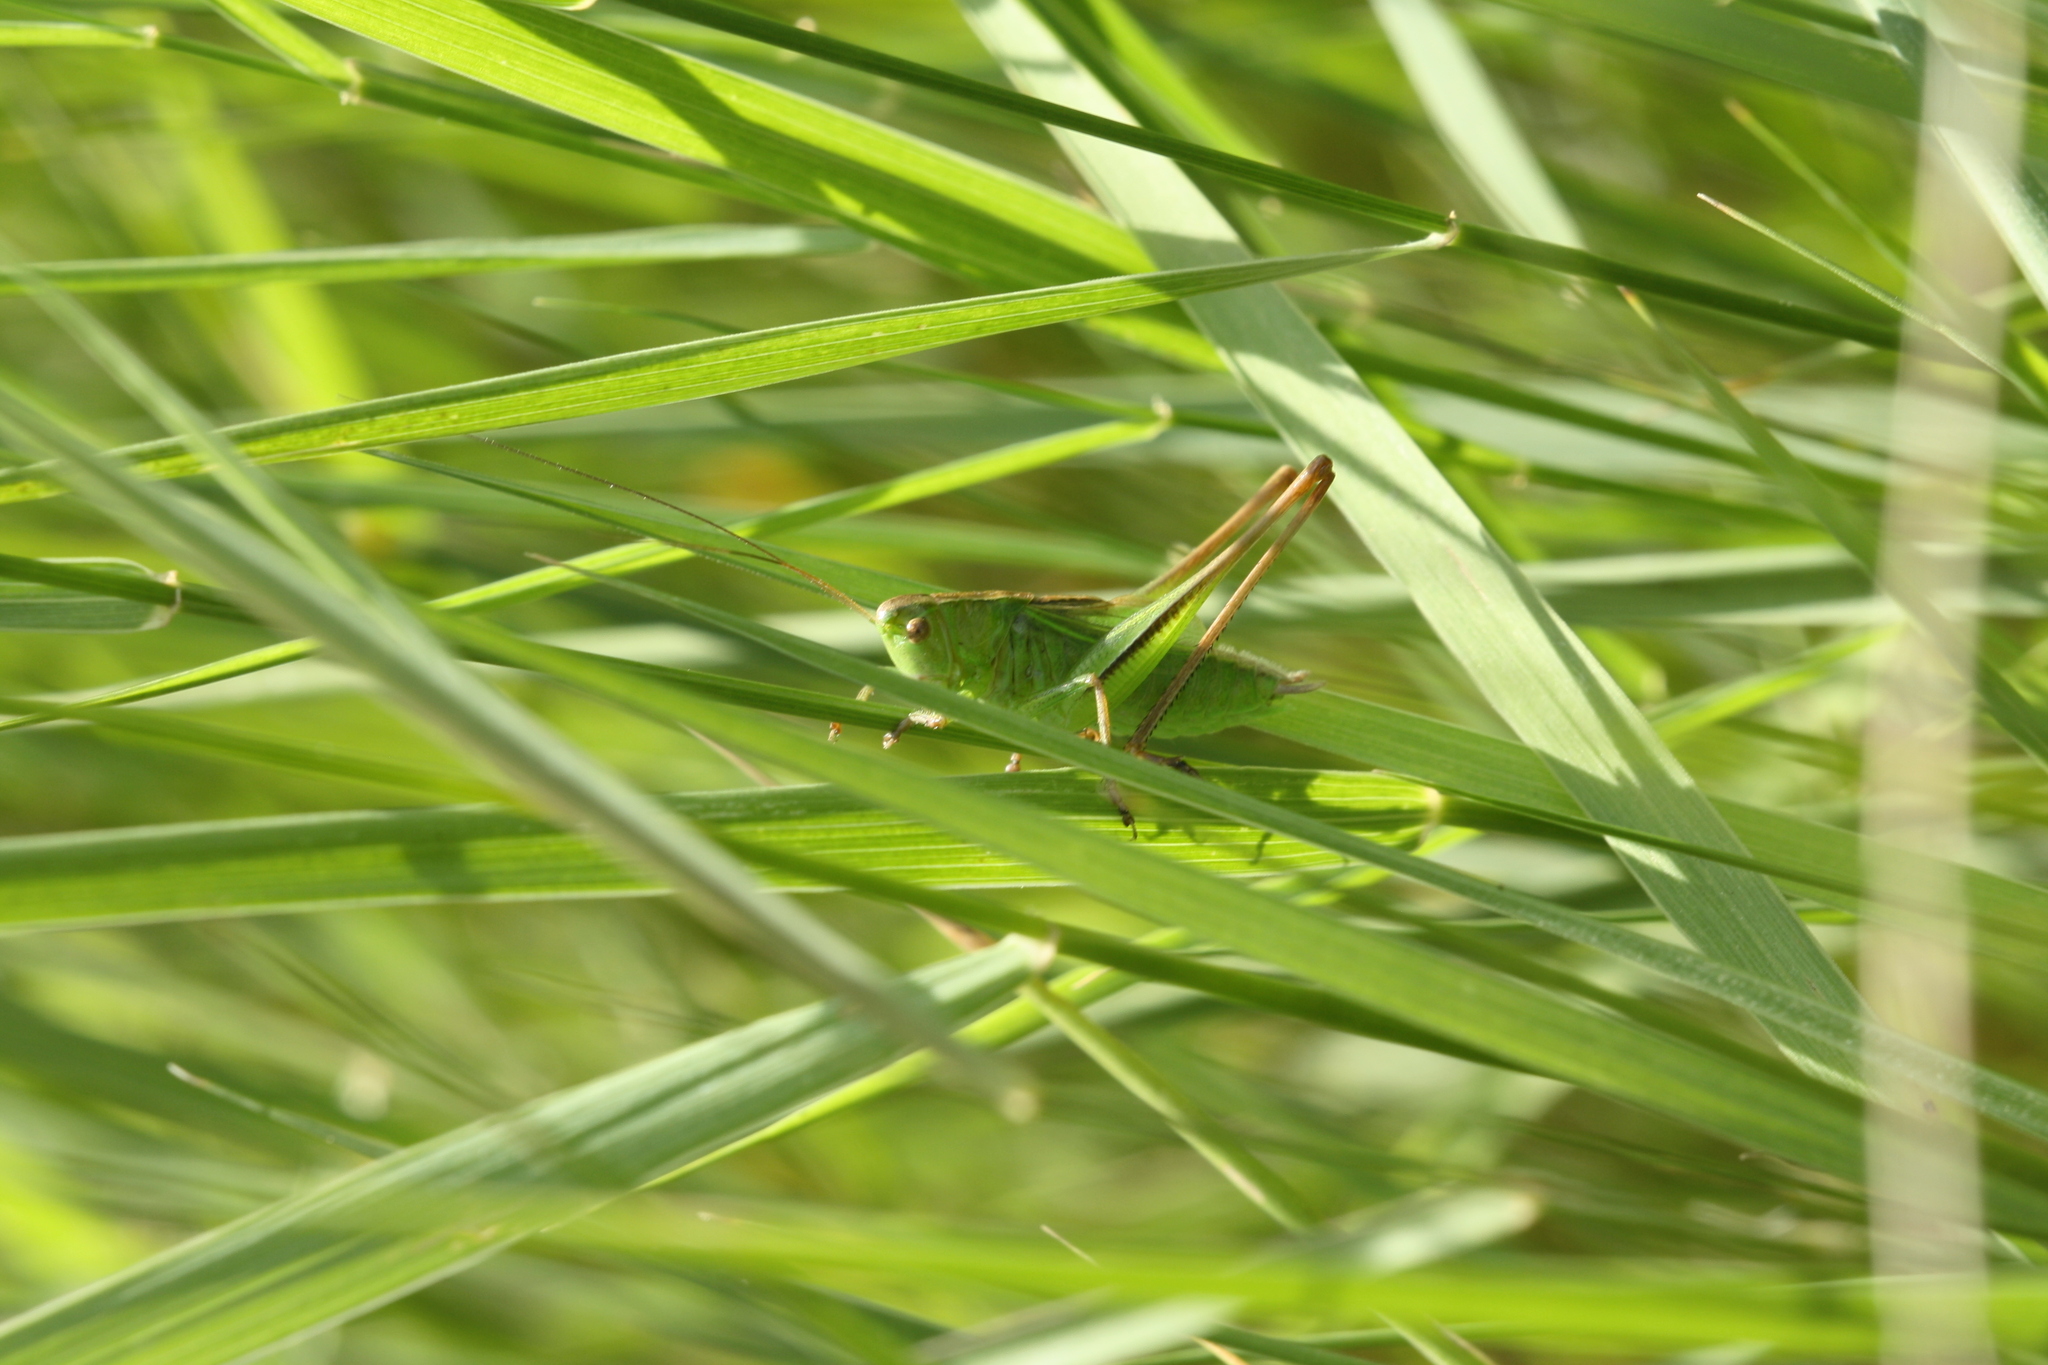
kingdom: Animalia
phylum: Arthropoda
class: Insecta
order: Orthoptera
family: Tettigoniidae
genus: Bicolorana
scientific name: Bicolorana bicolor
